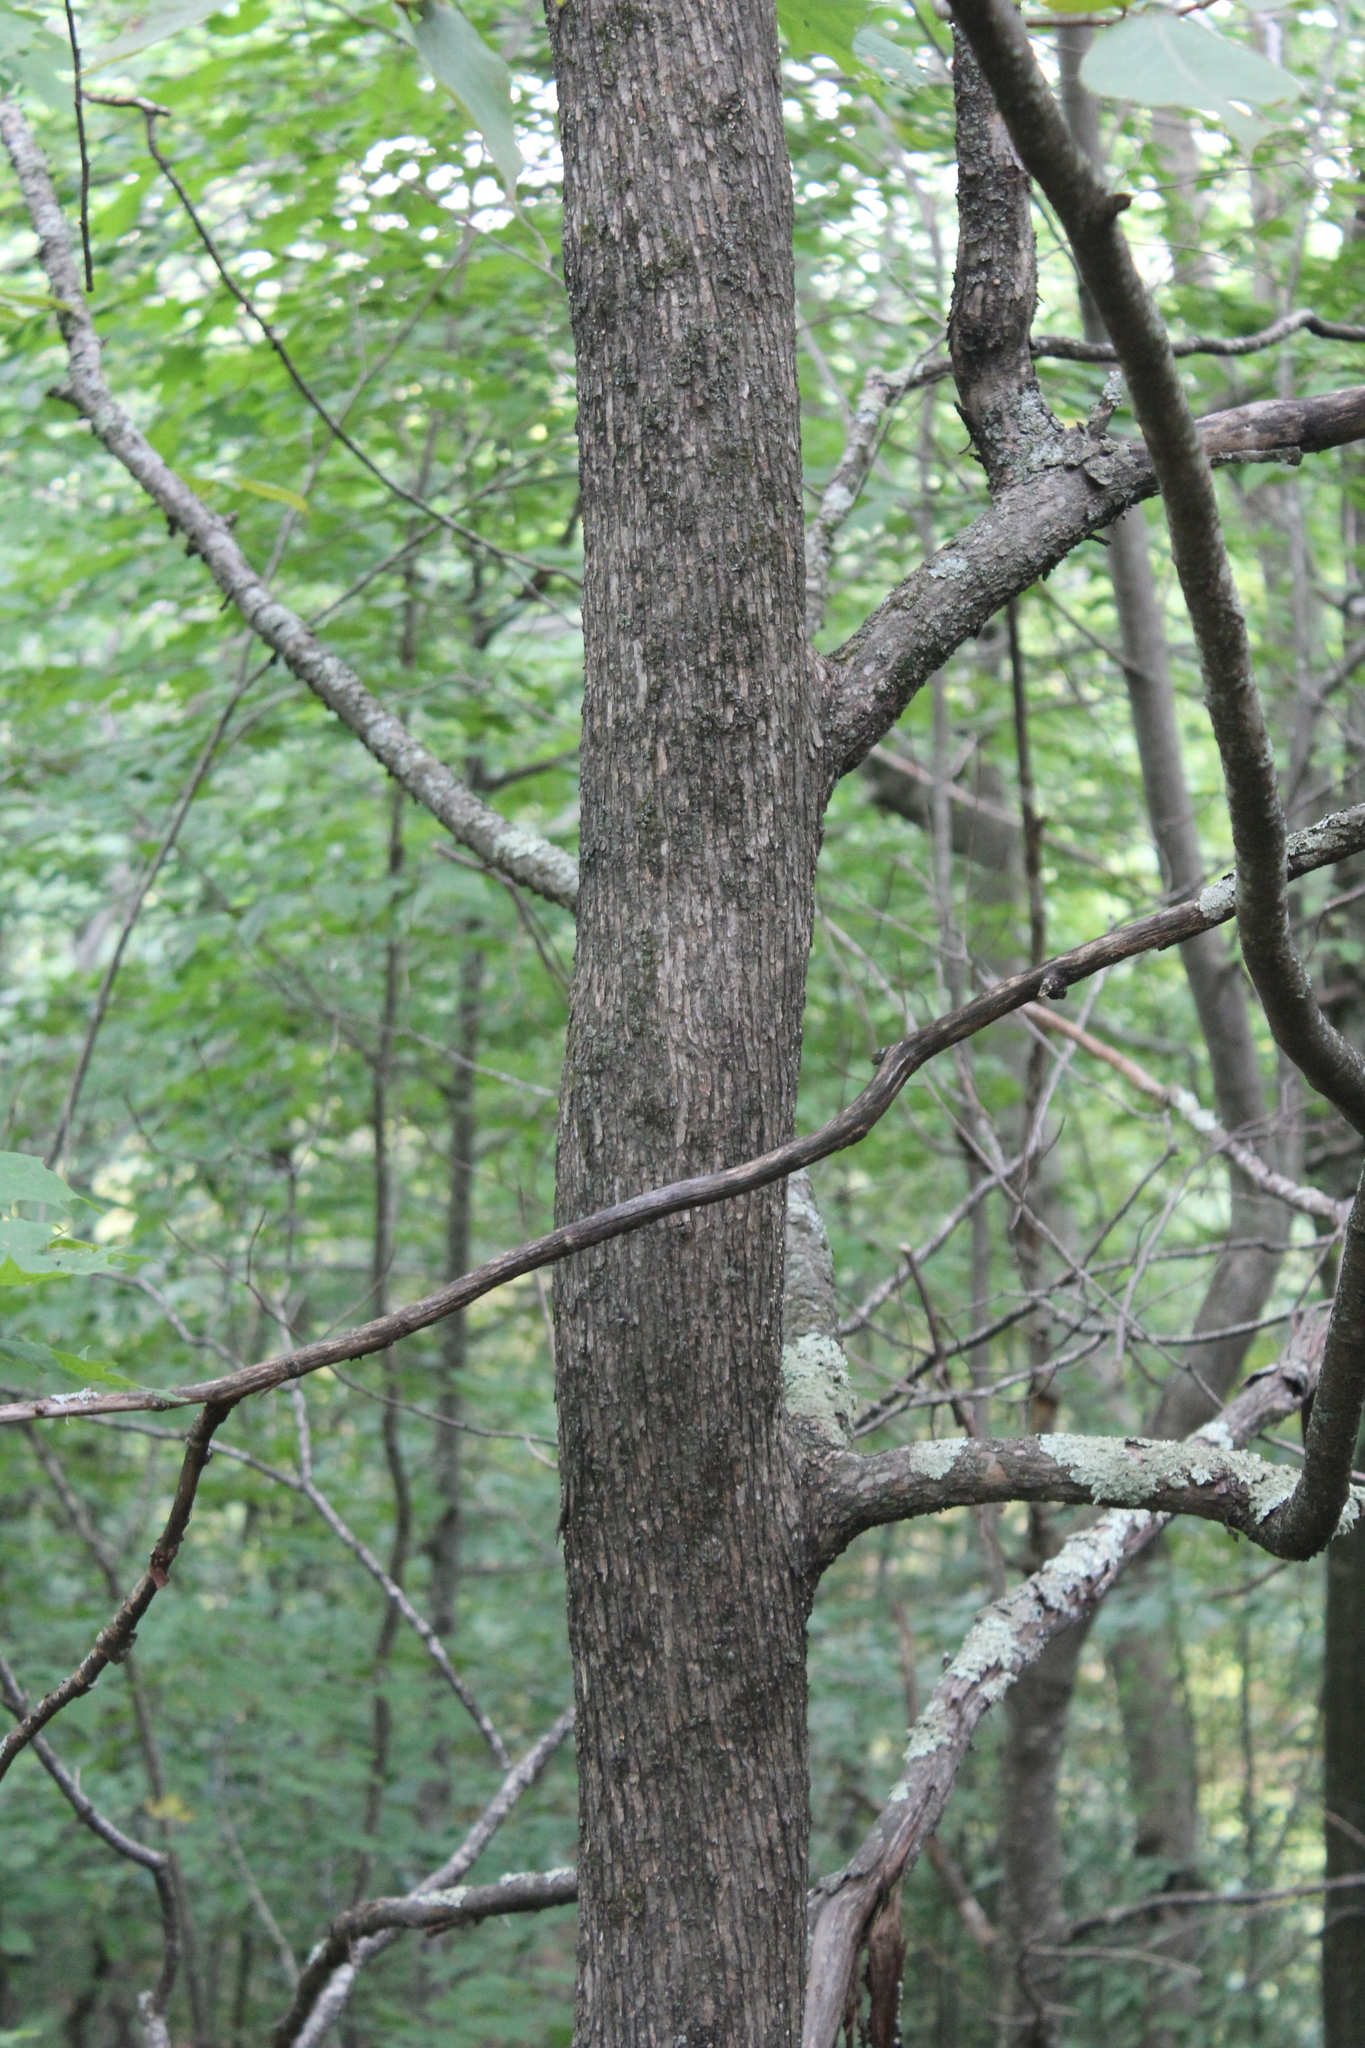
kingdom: Plantae
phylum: Tracheophyta
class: Magnoliopsida
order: Fagales
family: Betulaceae
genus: Ostrya
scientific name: Ostrya virginiana
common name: Ironwood
